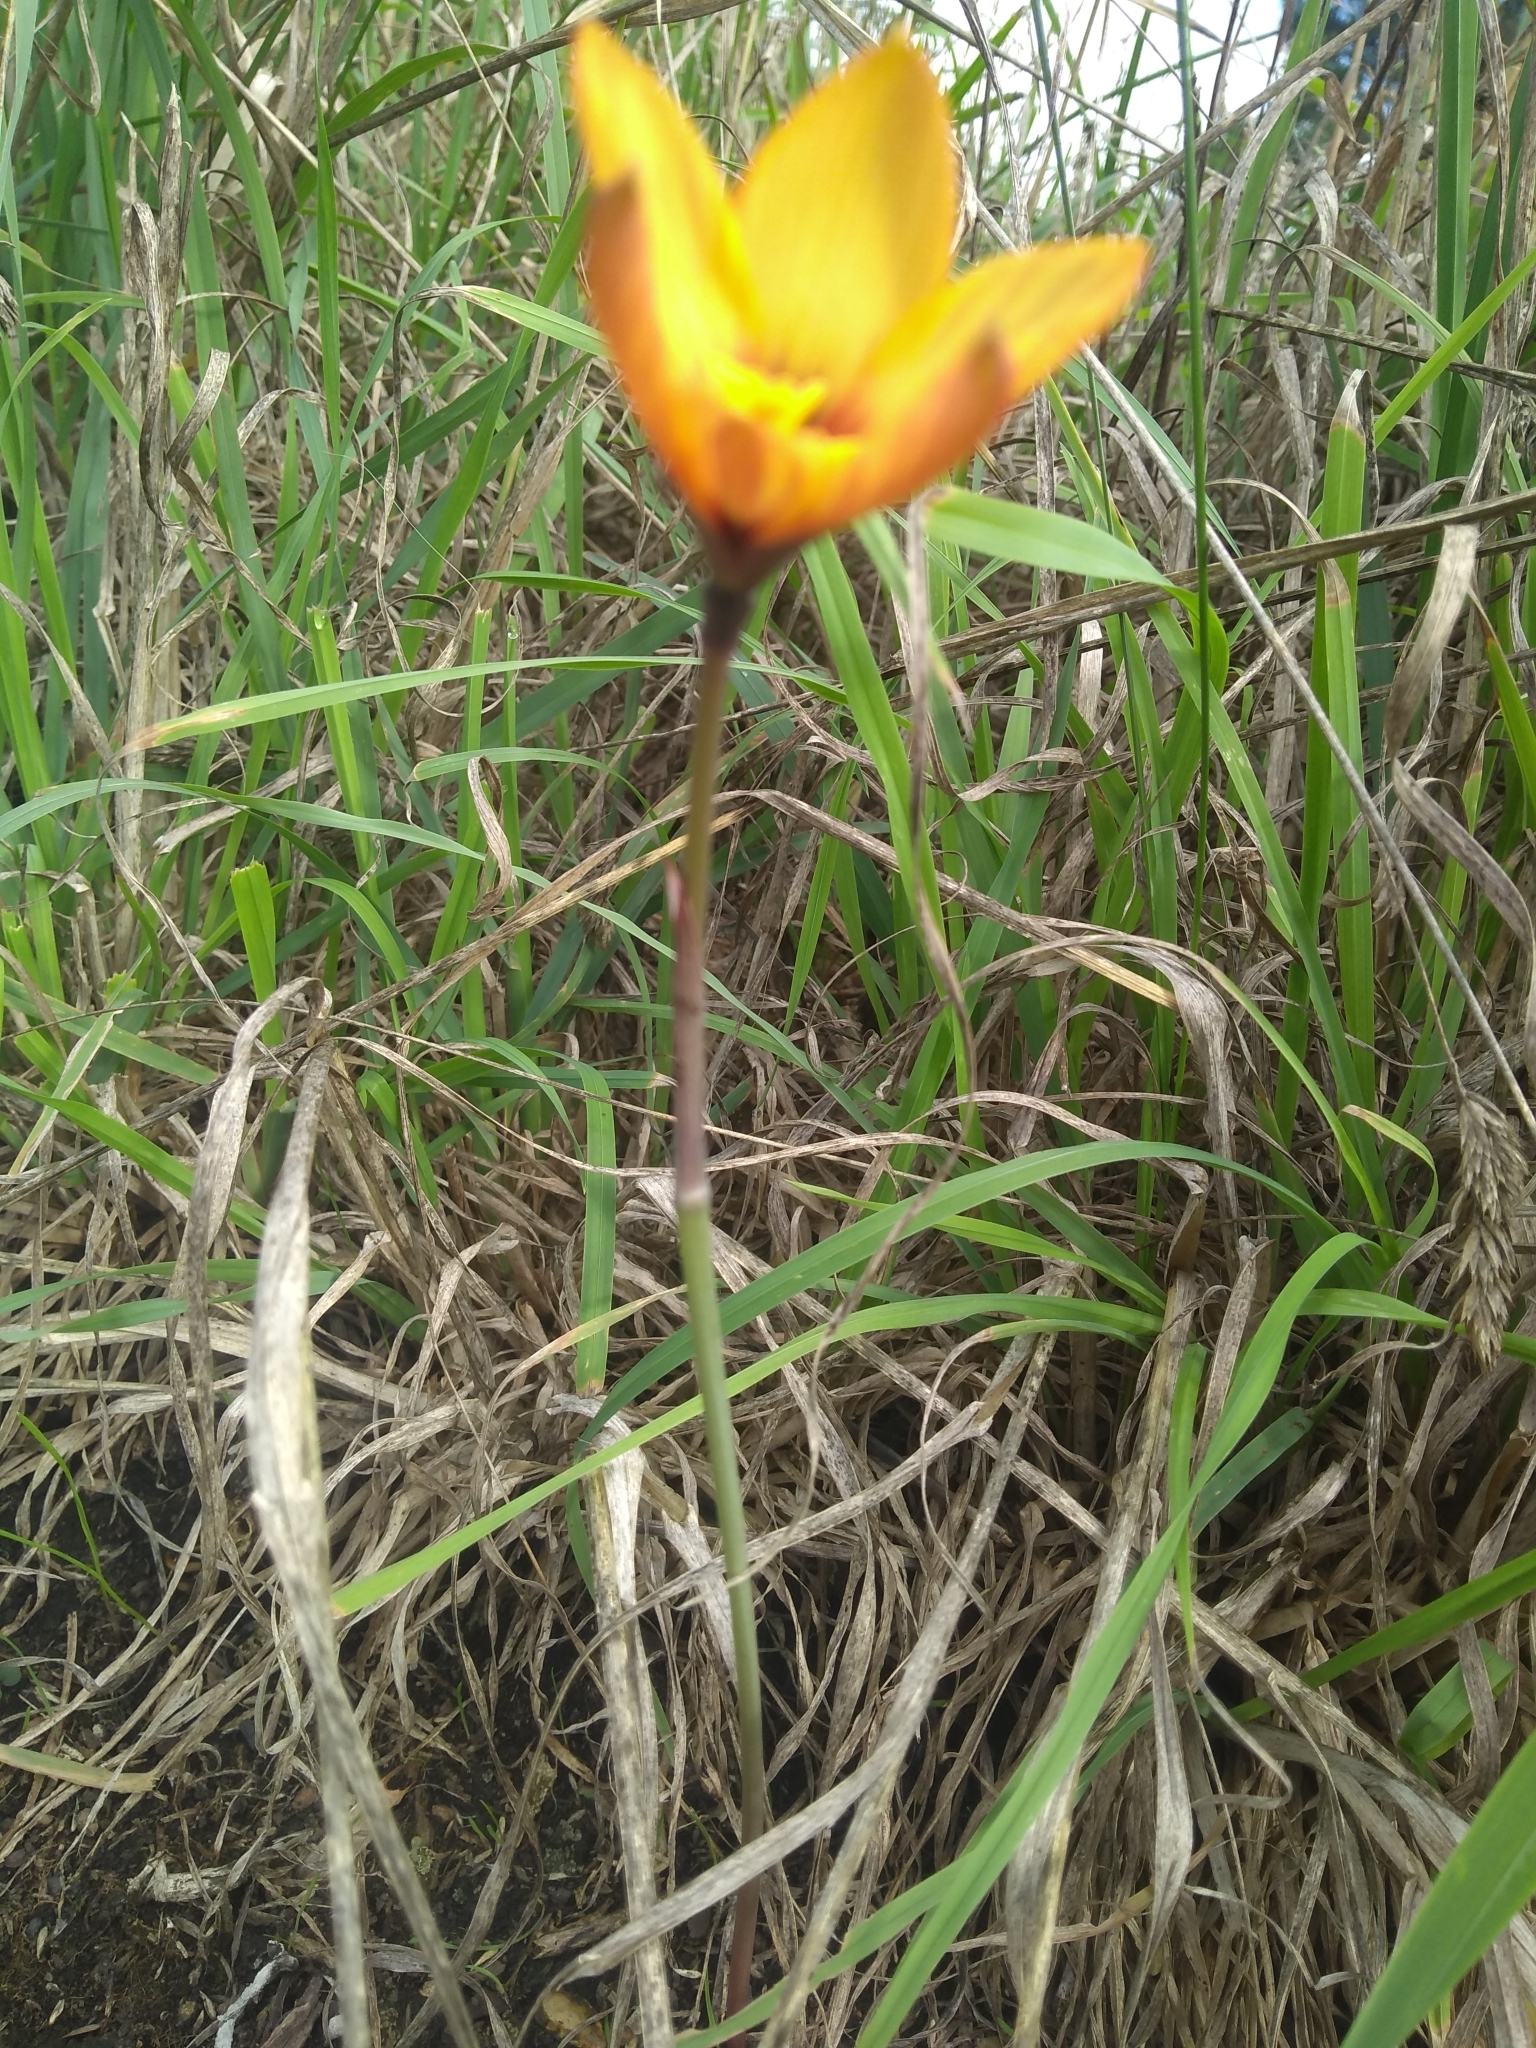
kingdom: Plantae
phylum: Tracheophyta
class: Liliopsida
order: Asparagales
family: Amaryllidaceae
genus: Zephyranthes
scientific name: Zephyranthes tubispatha
